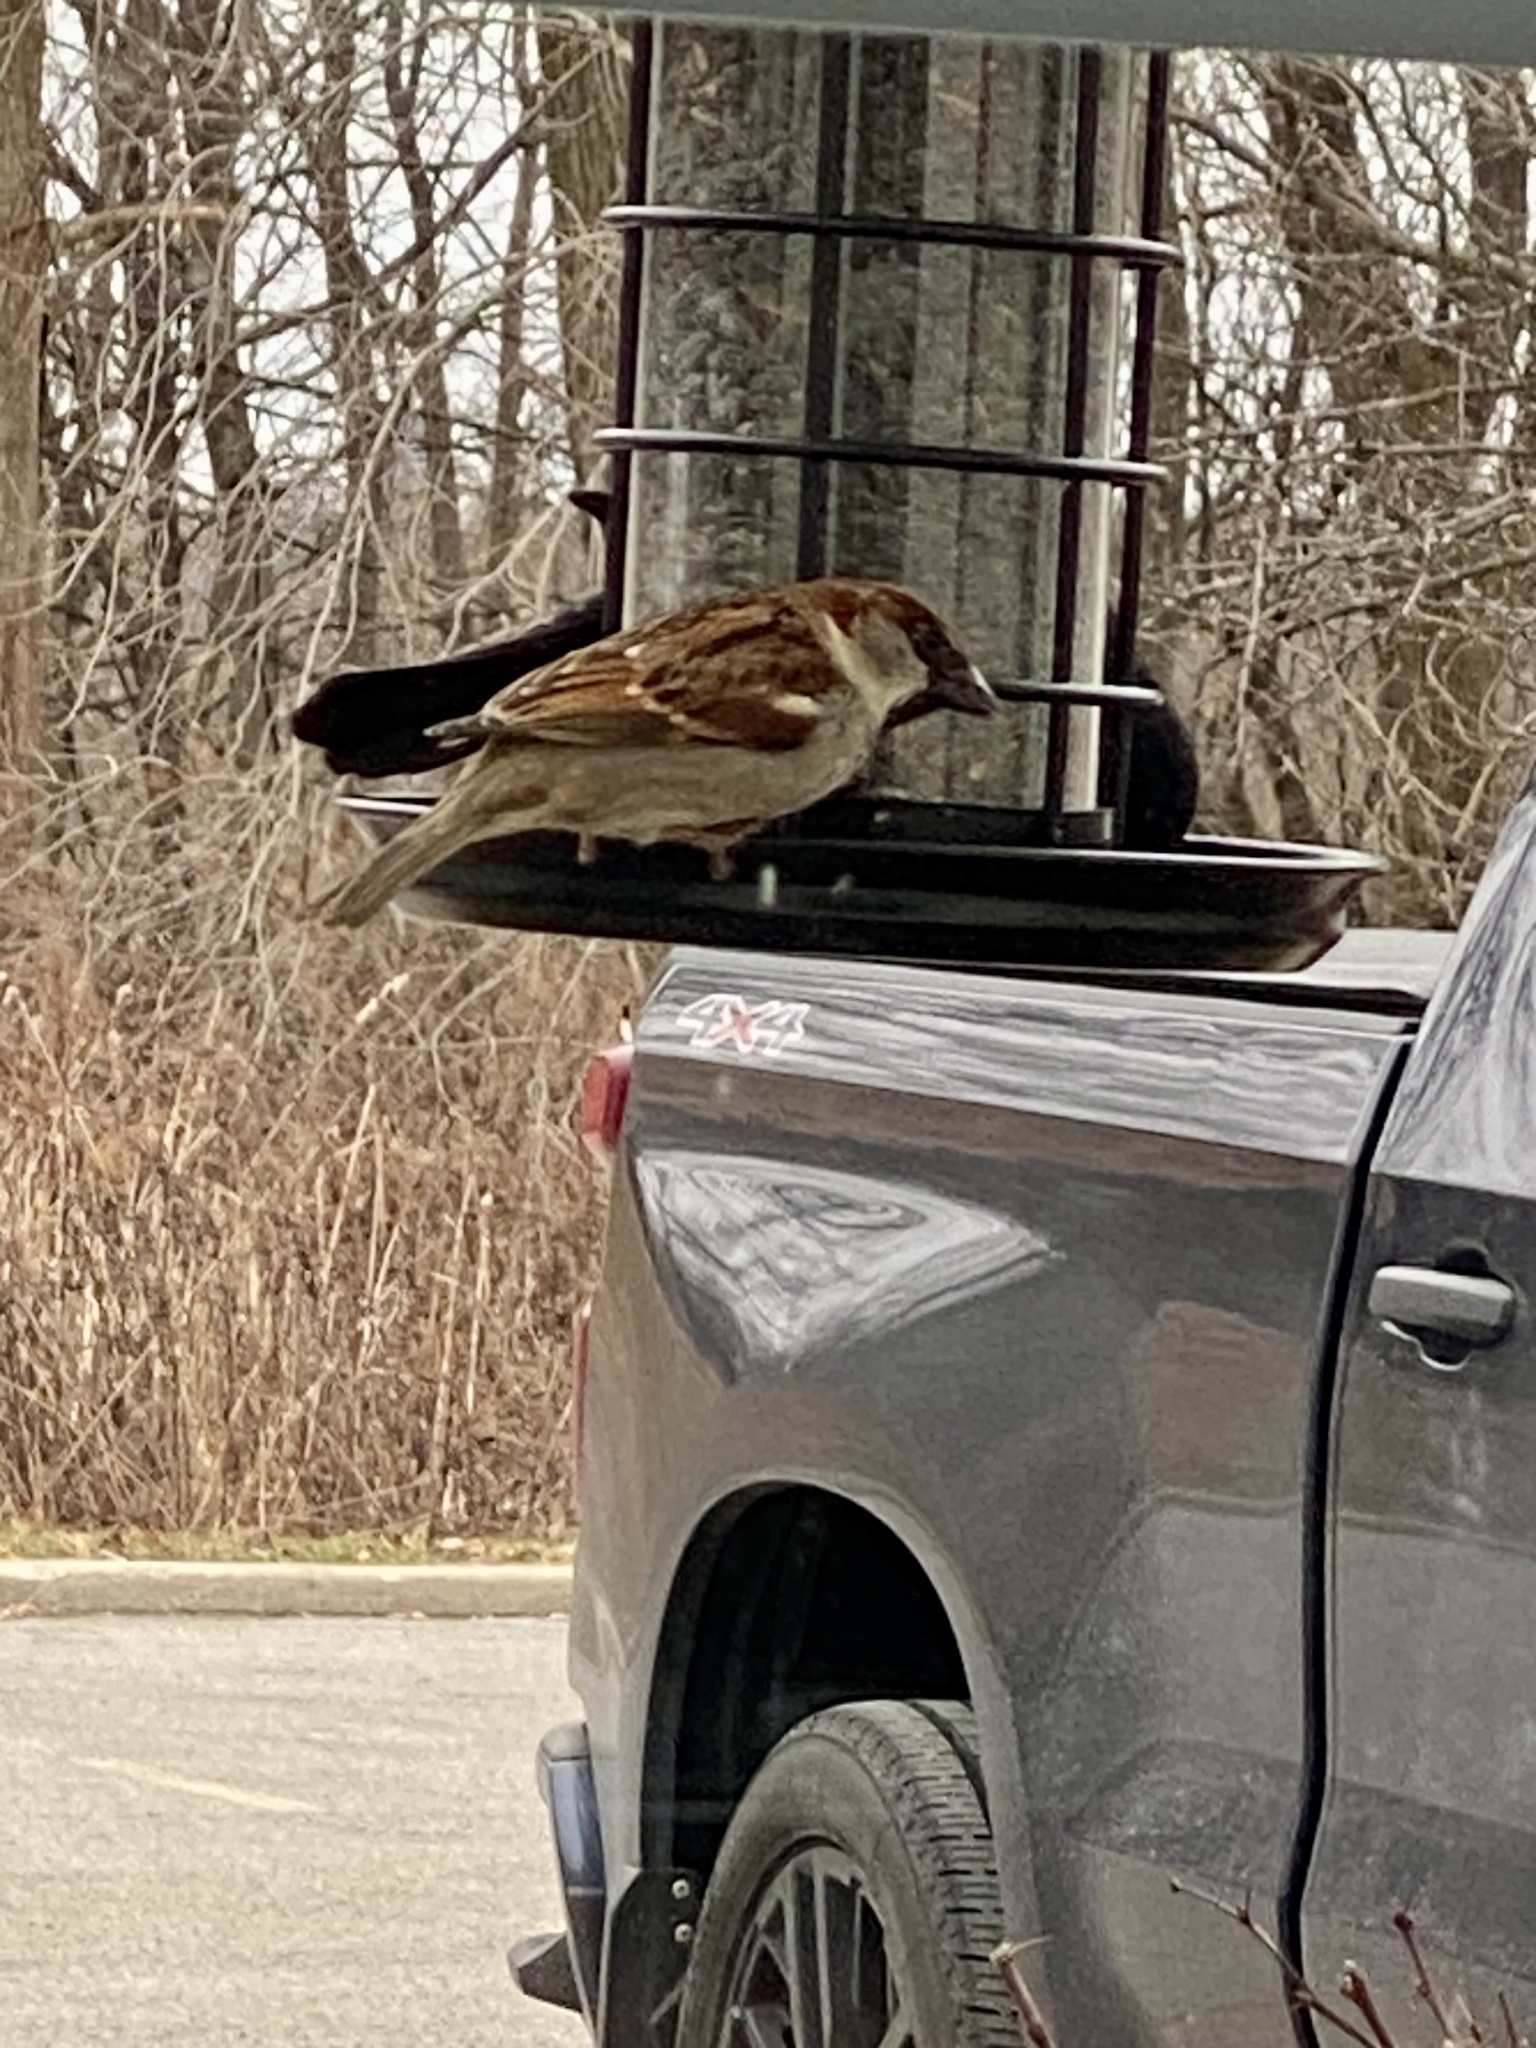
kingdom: Animalia
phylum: Chordata
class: Aves
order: Passeriformes
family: Passeridae
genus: Passer
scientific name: Passer domesticus
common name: House sparrow
